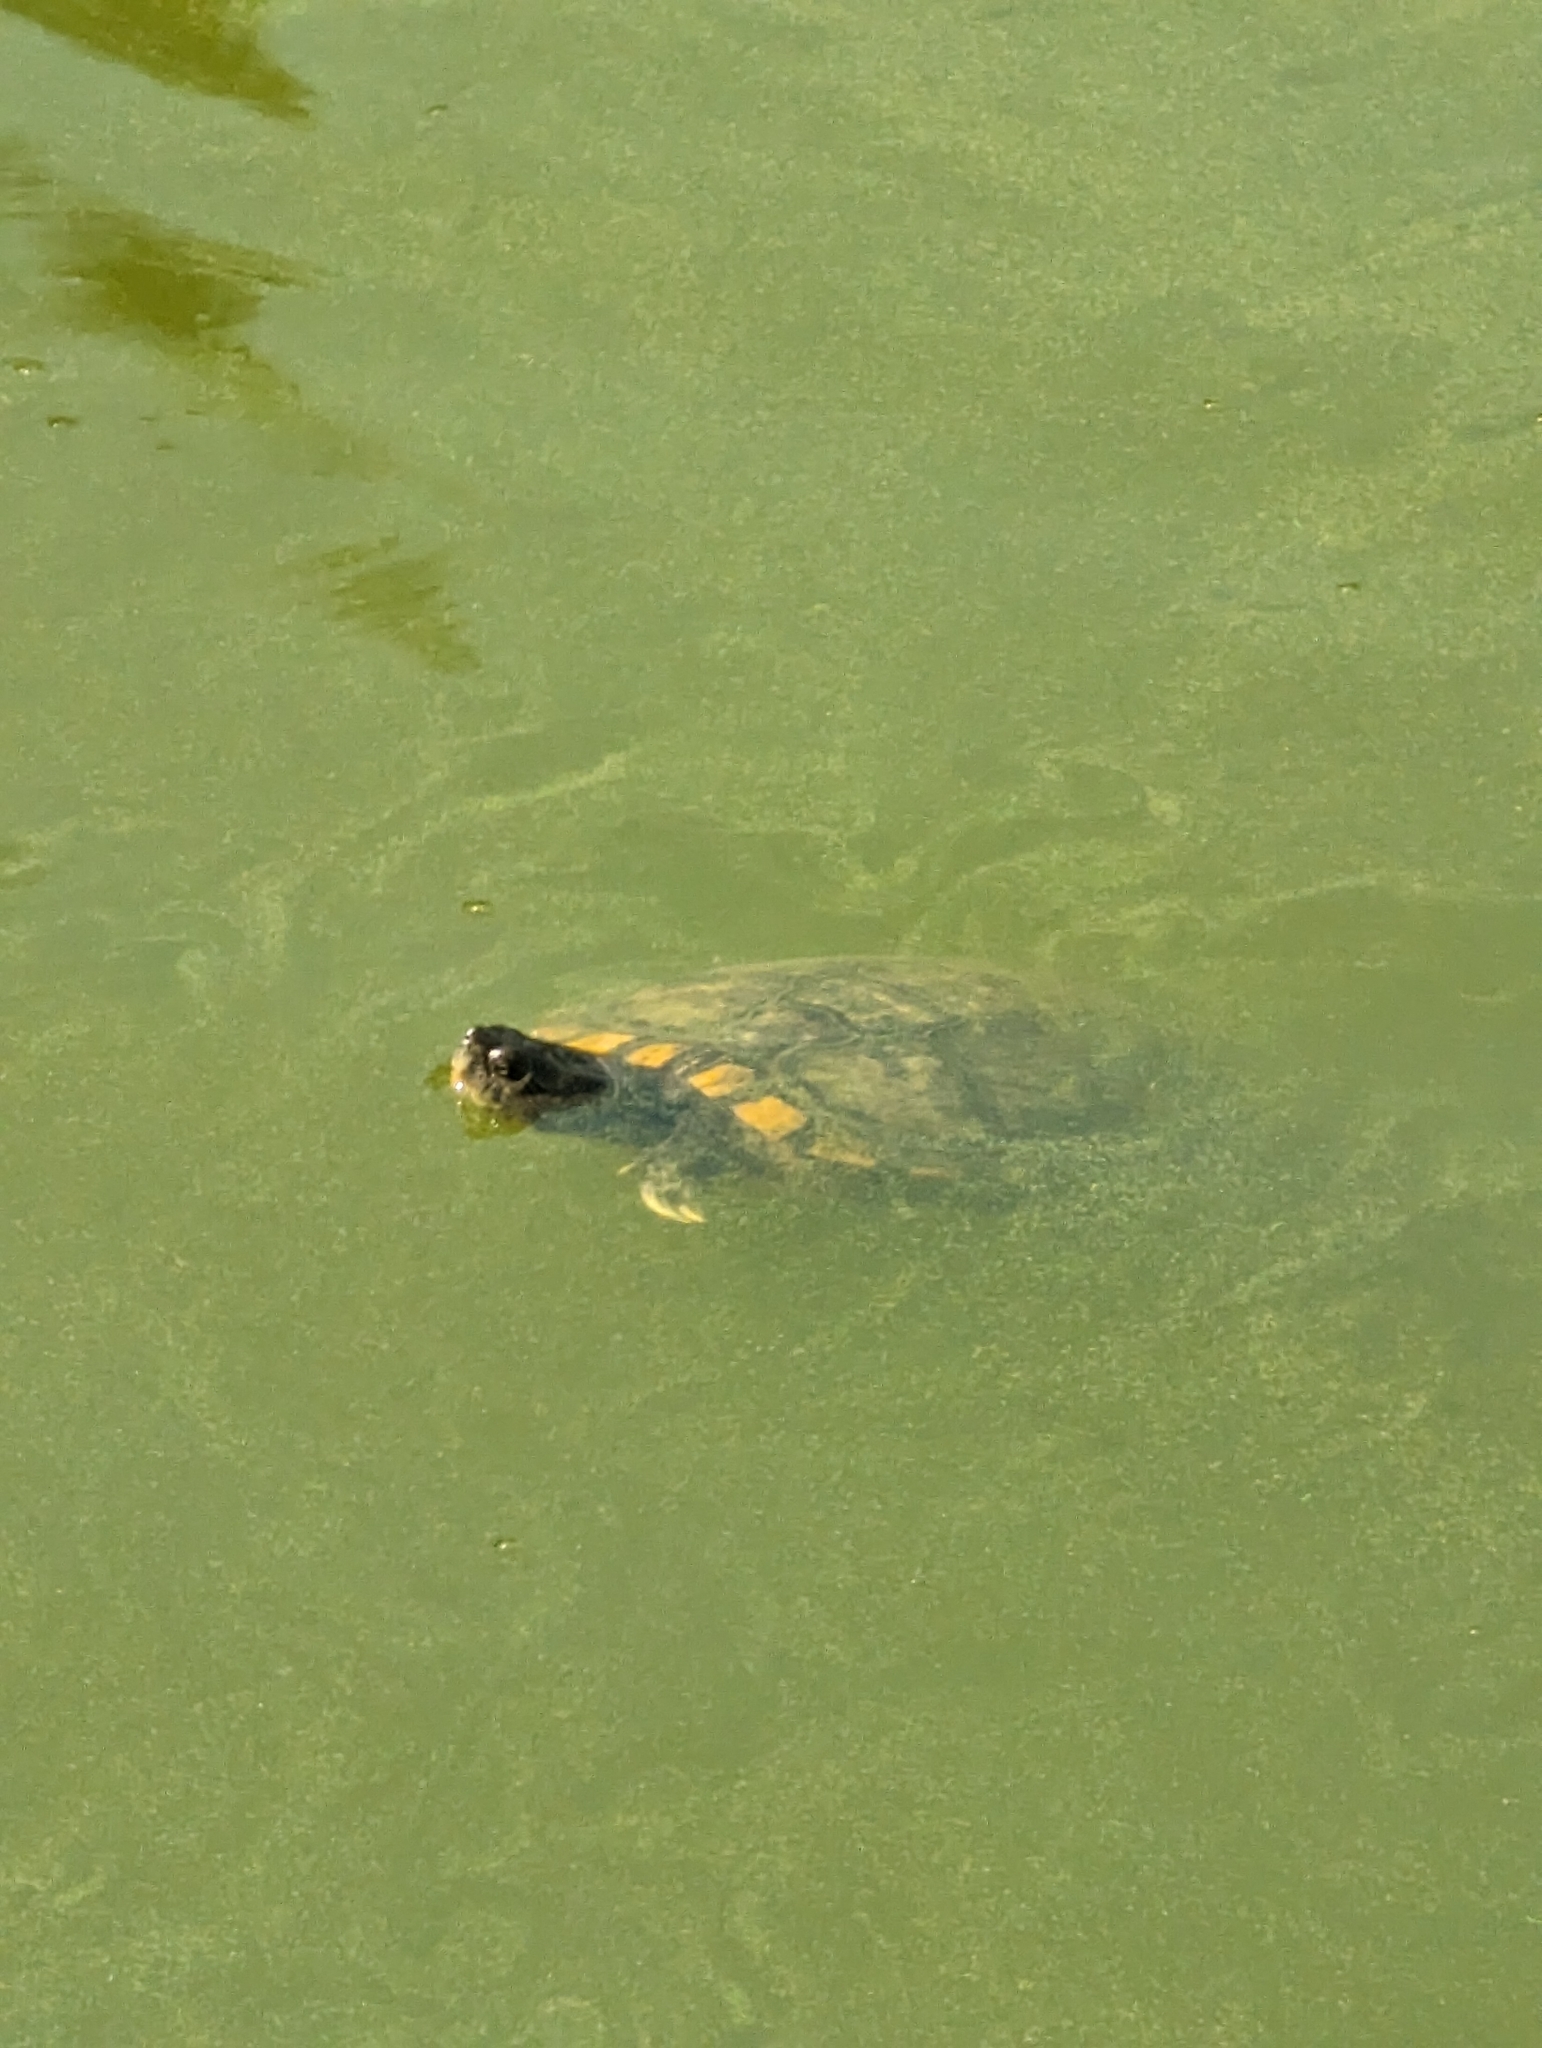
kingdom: Animalia
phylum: Chordata
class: Testudines
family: Emydidae
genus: Trachemys
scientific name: Trachemys scripta
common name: Slider
